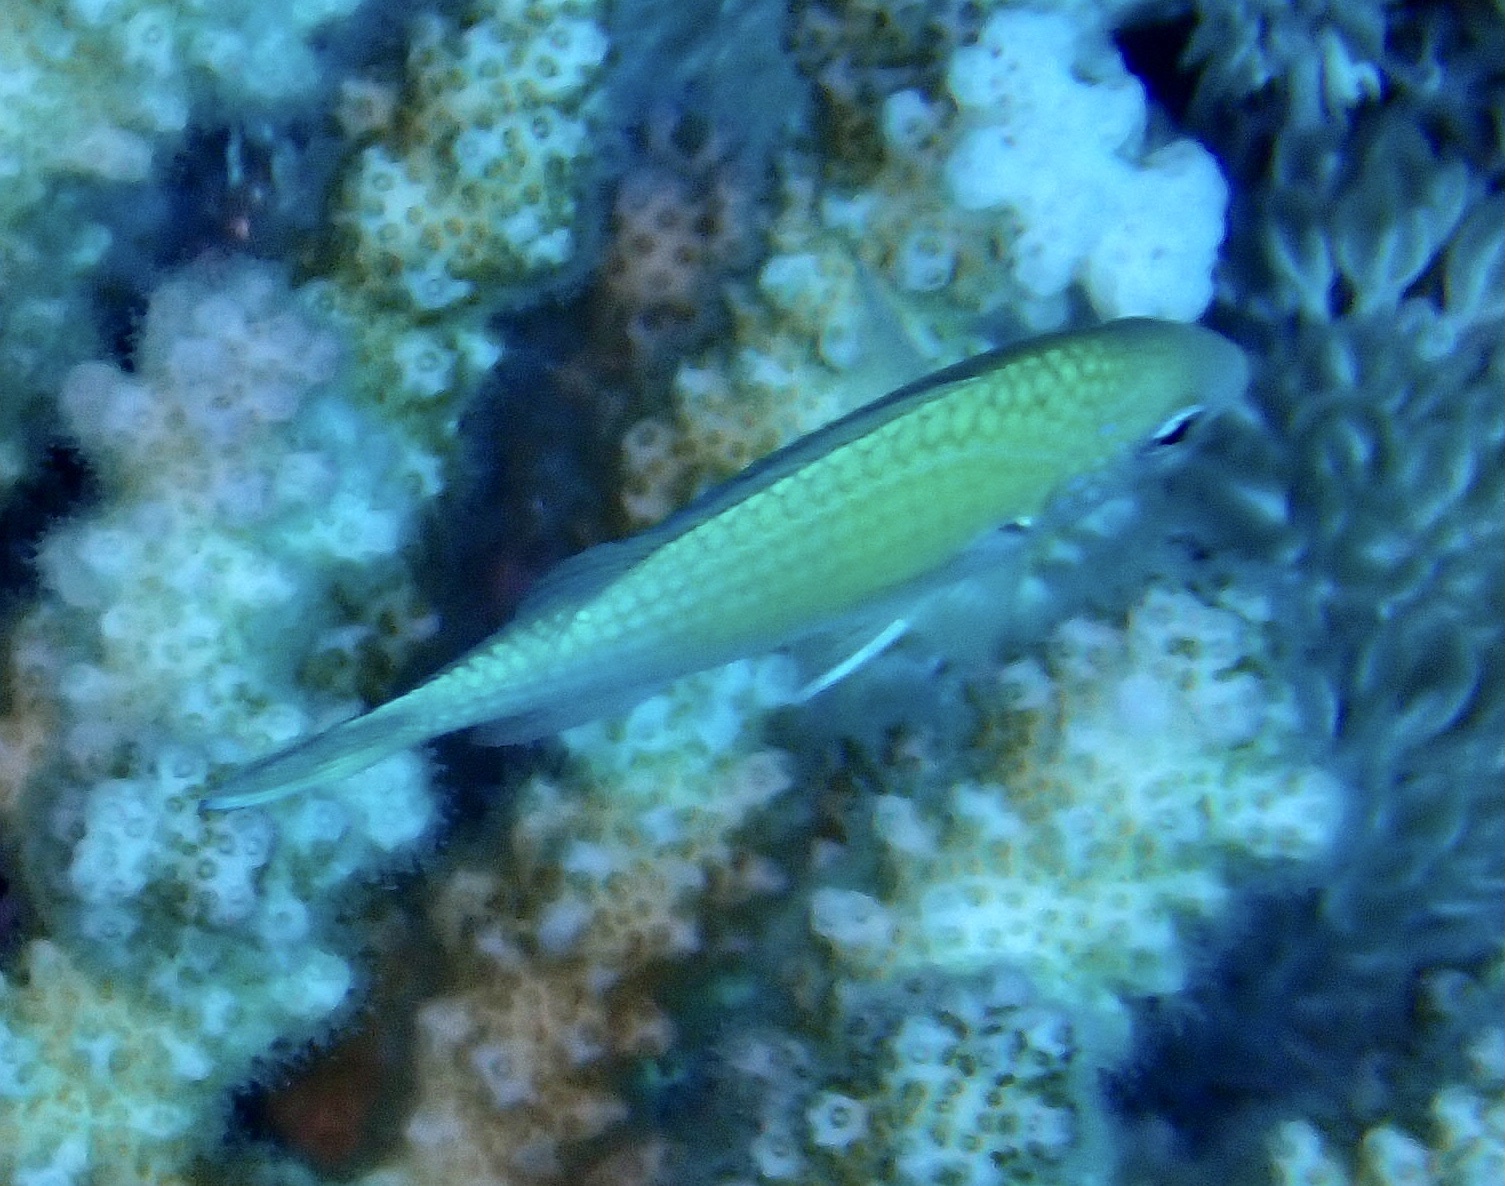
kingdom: Animalia
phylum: Chordata
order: Perciformes
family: Pomacentridae
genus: Chromis
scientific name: Chromis viridis
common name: Blue-green chromis
